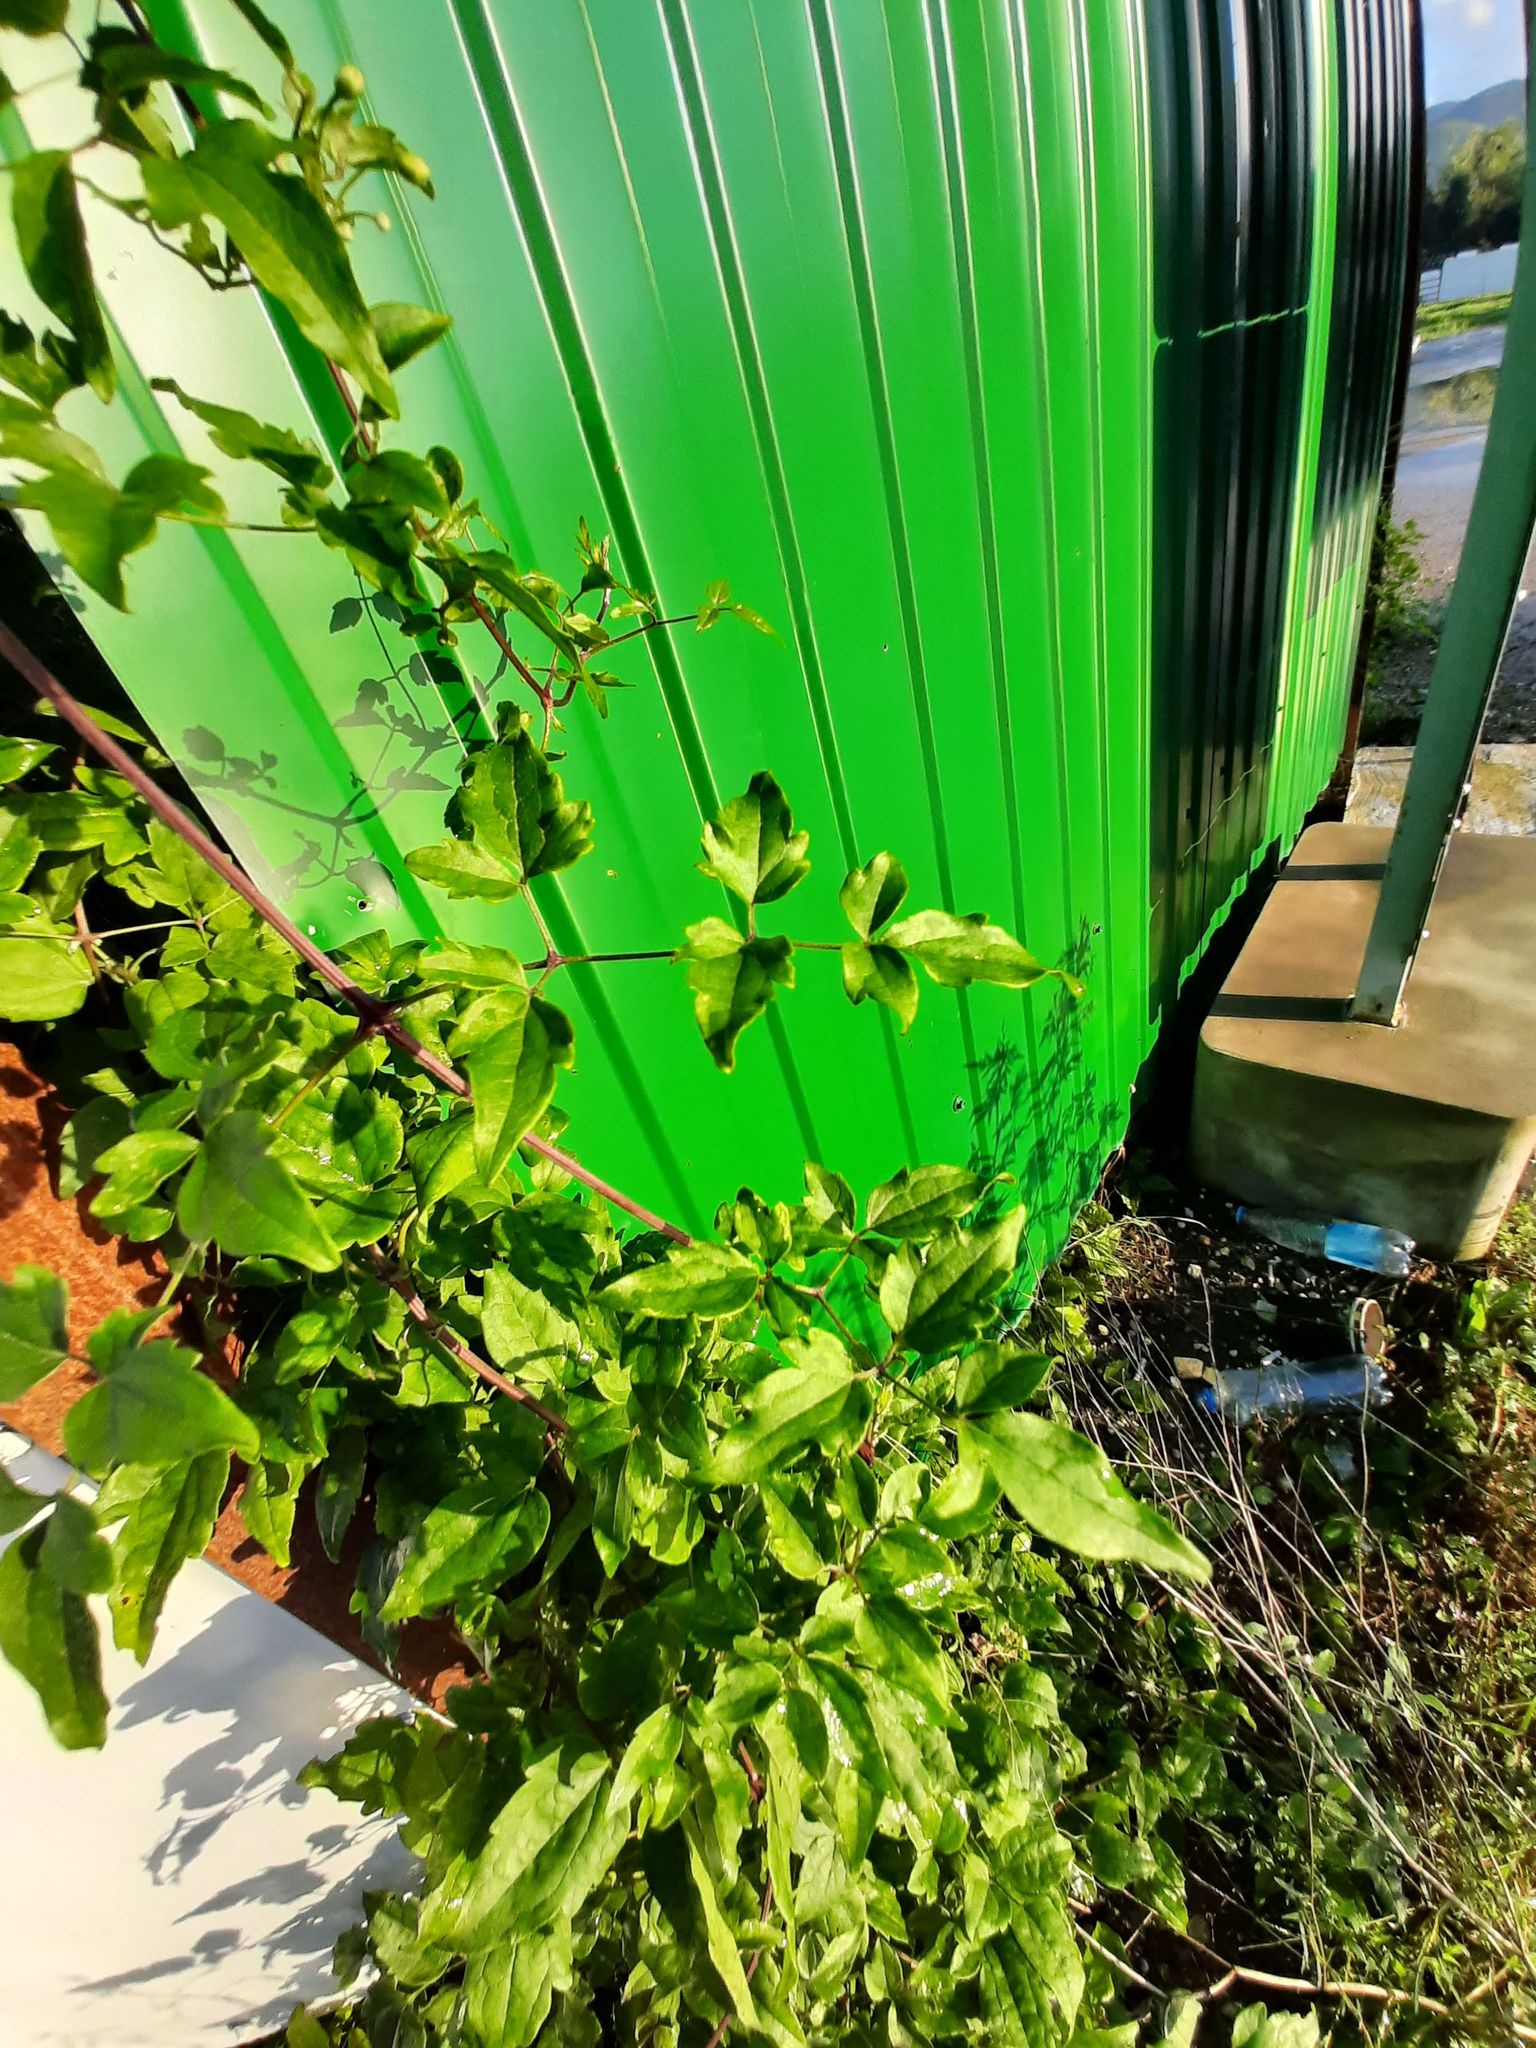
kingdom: Plantae
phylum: Tracheophyta
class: Magnoliopsida
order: Ranunculales
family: Ranunculaceae
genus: Clematis
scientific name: Clematis vitalba
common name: Evergreen clematis
